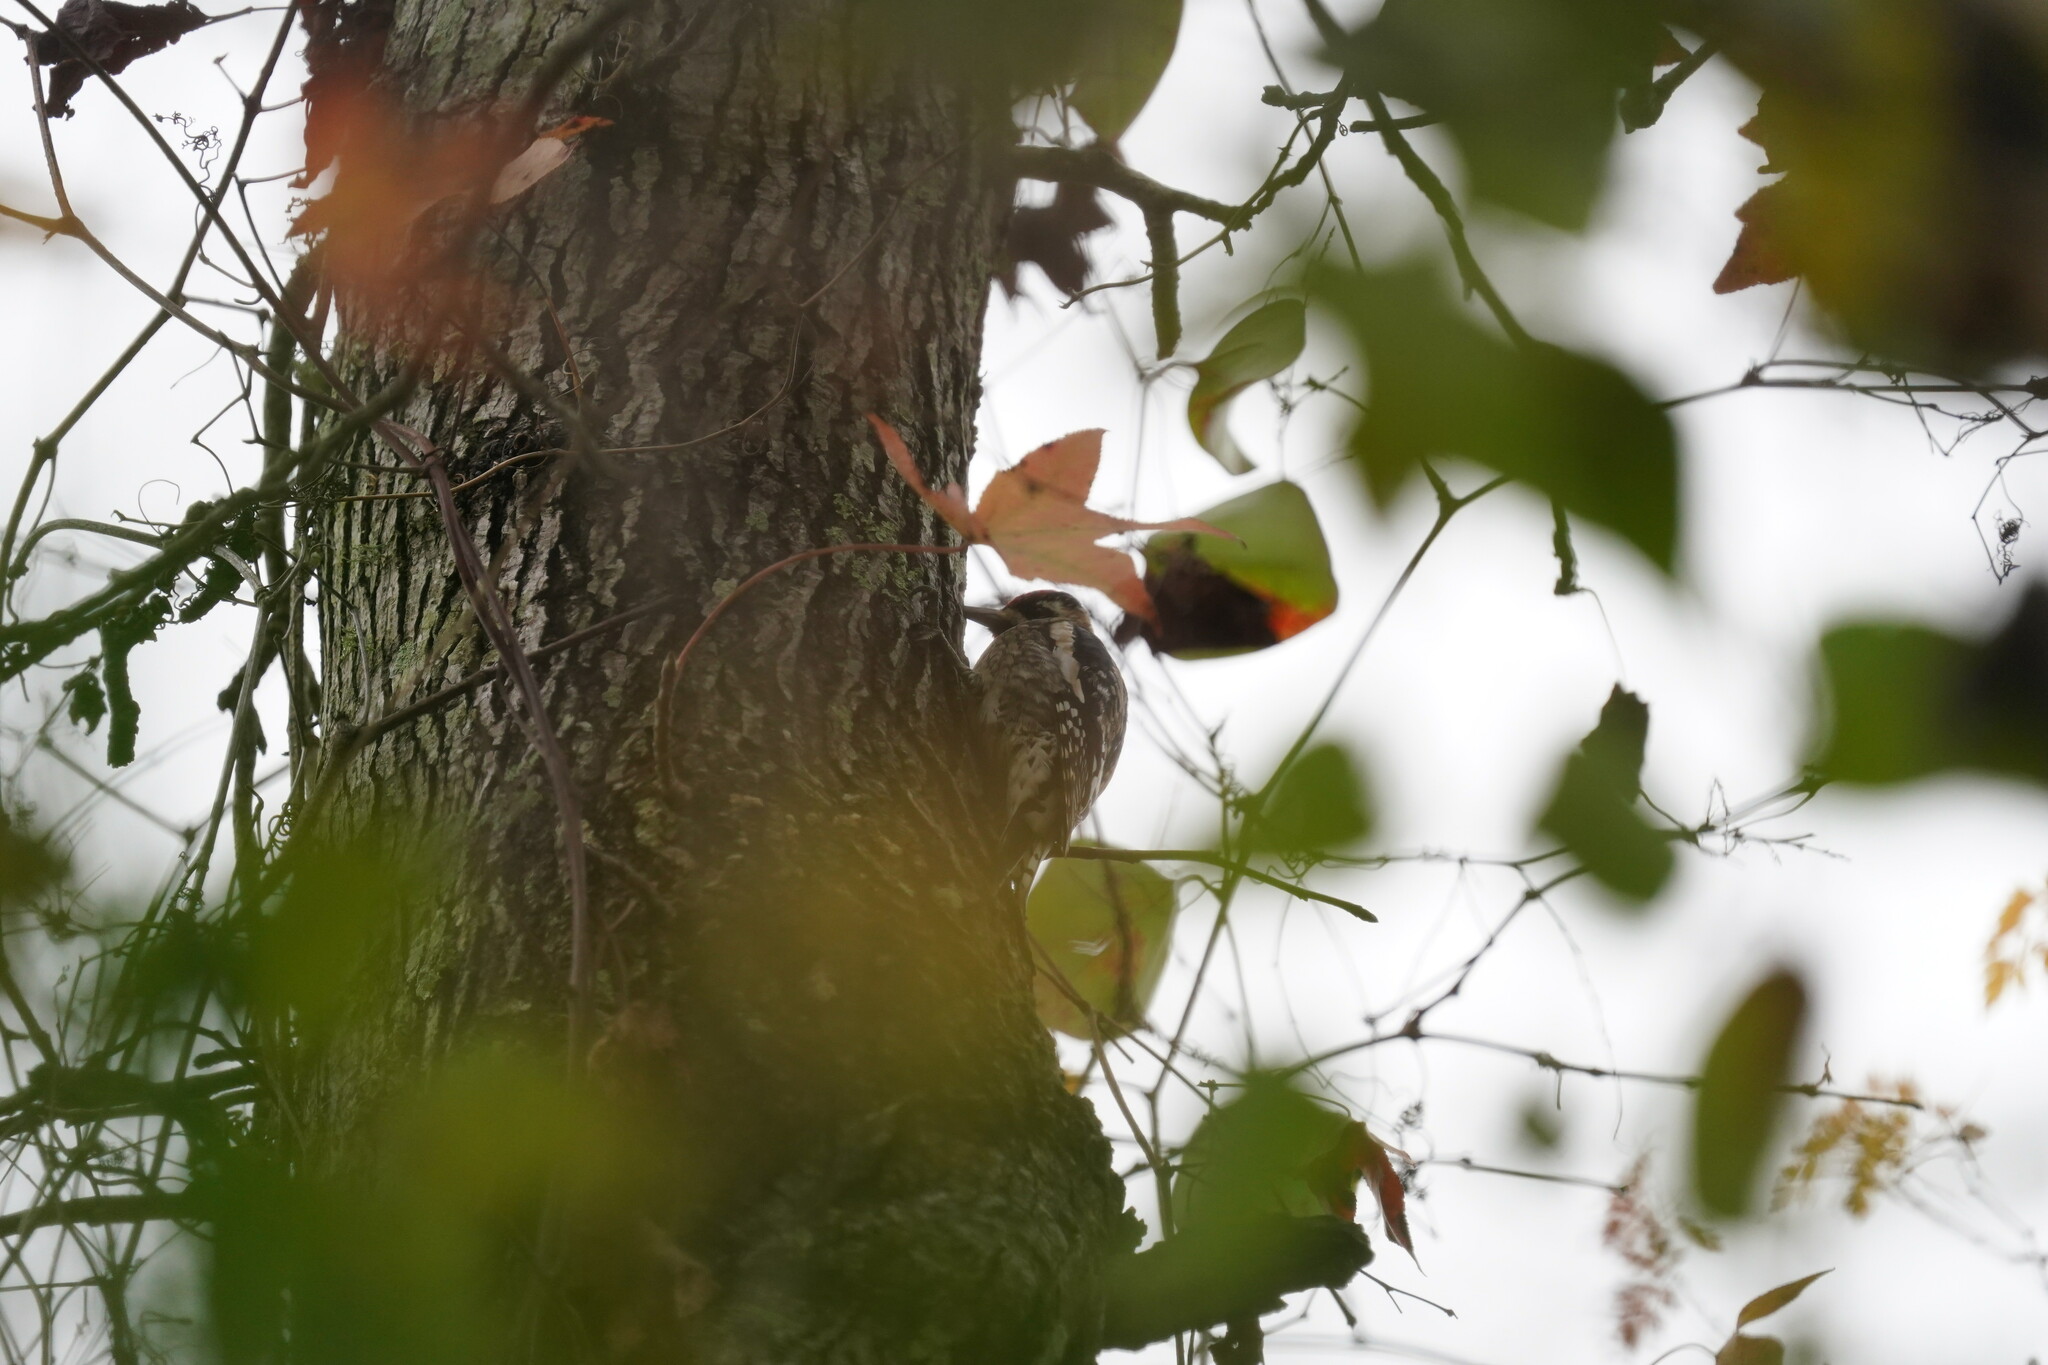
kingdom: Animalia
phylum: Chordata
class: Aves
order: Piciformes
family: Picidae
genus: Sphyrapicus
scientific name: Sphyrapicus varius
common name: Yellow-bellied sapsucker
